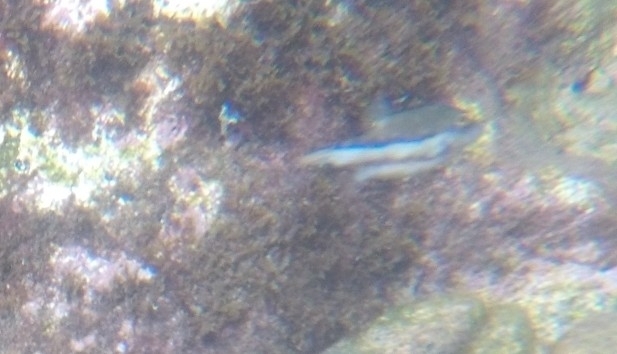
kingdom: Animalia
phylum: Chordata
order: Tetraodontiformes
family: Tetraodontidae
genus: Canthigaster
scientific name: Canthigaster capistrata
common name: Macaronesian sharpnose-puffer
